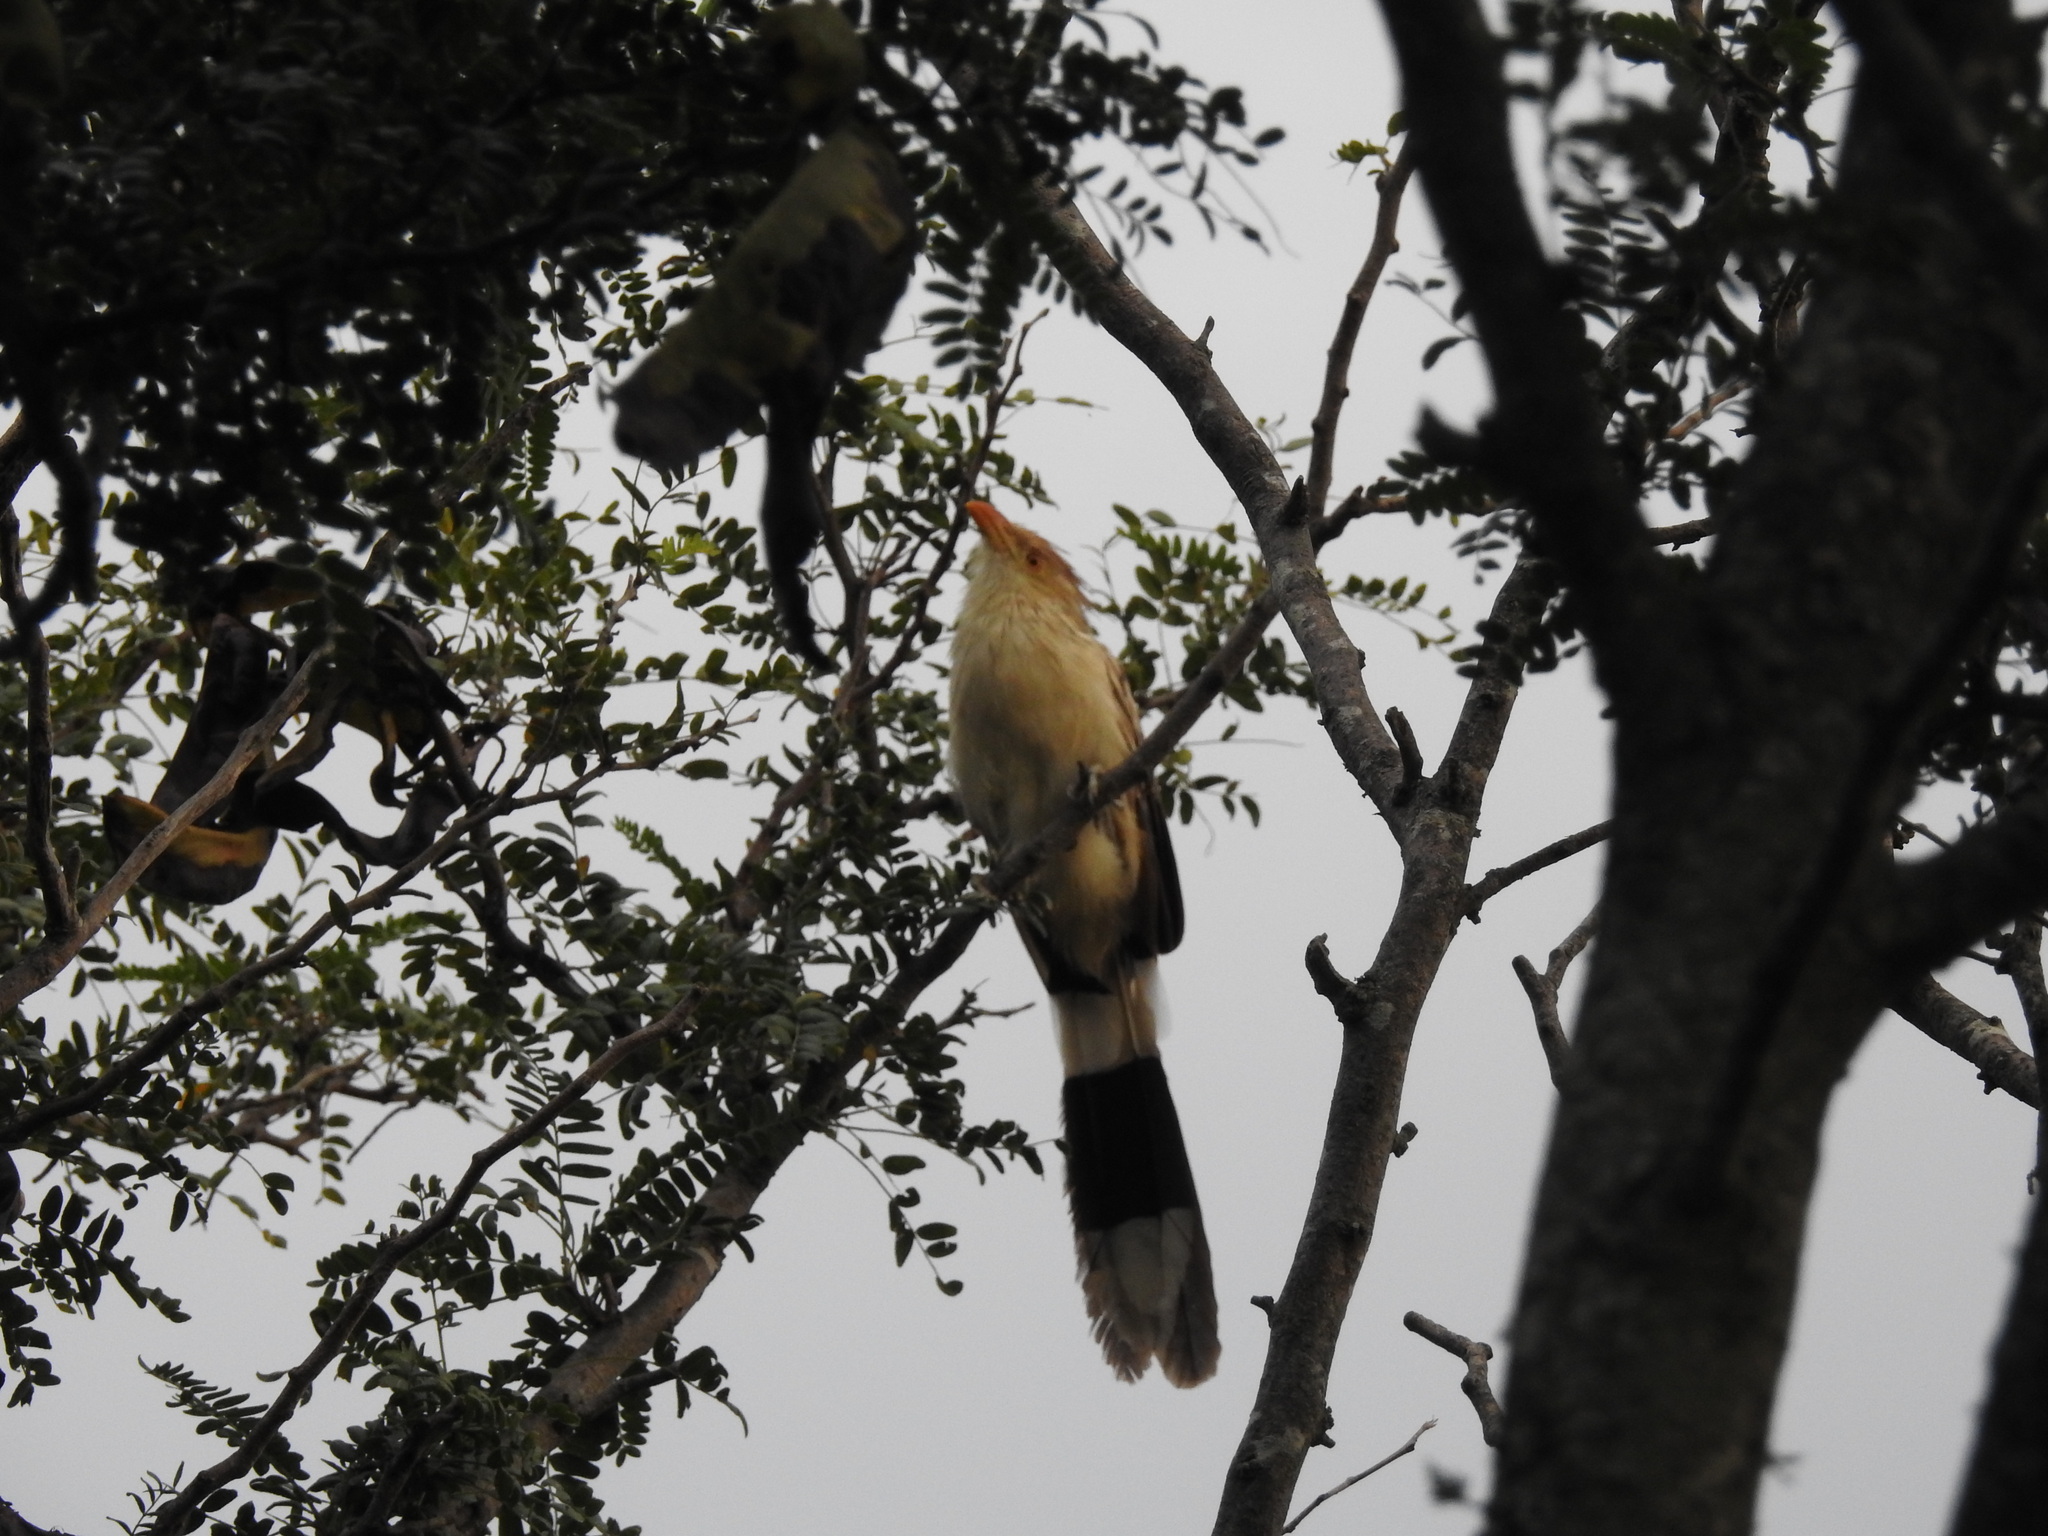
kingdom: Animalia
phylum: Chordata
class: Aves
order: Cuculiformes
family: Cuculidae
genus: Guira
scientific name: Guira guira
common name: Guira cuckoo
